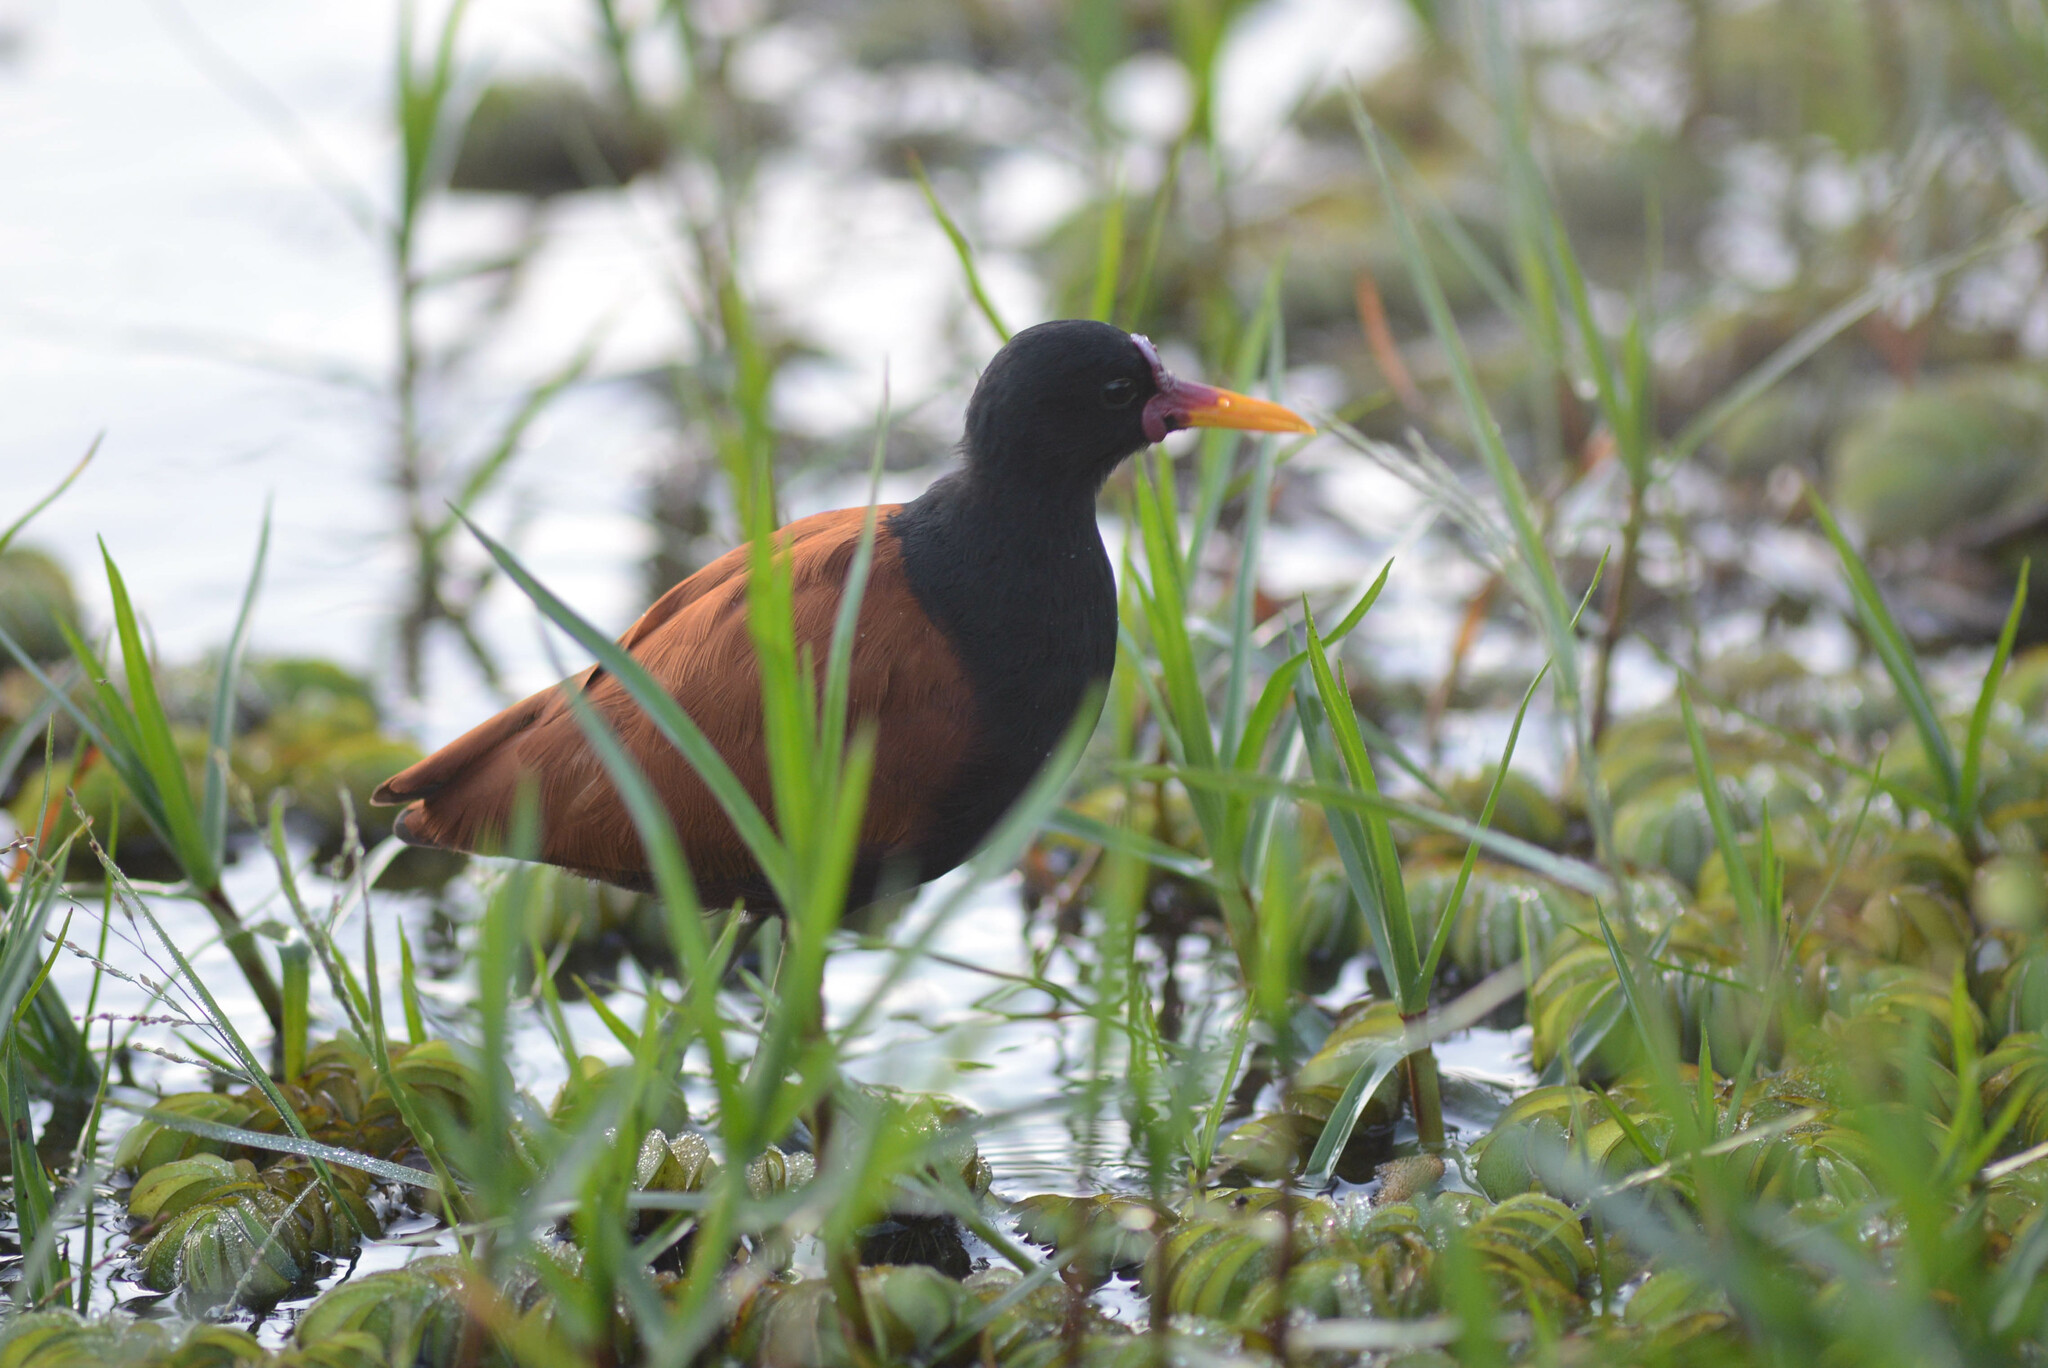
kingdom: Animalia
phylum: Chordata
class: Aves
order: Charadriiformes
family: Jacanidae
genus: Jacana
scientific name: Jacana jacana
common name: Wattled jacana
